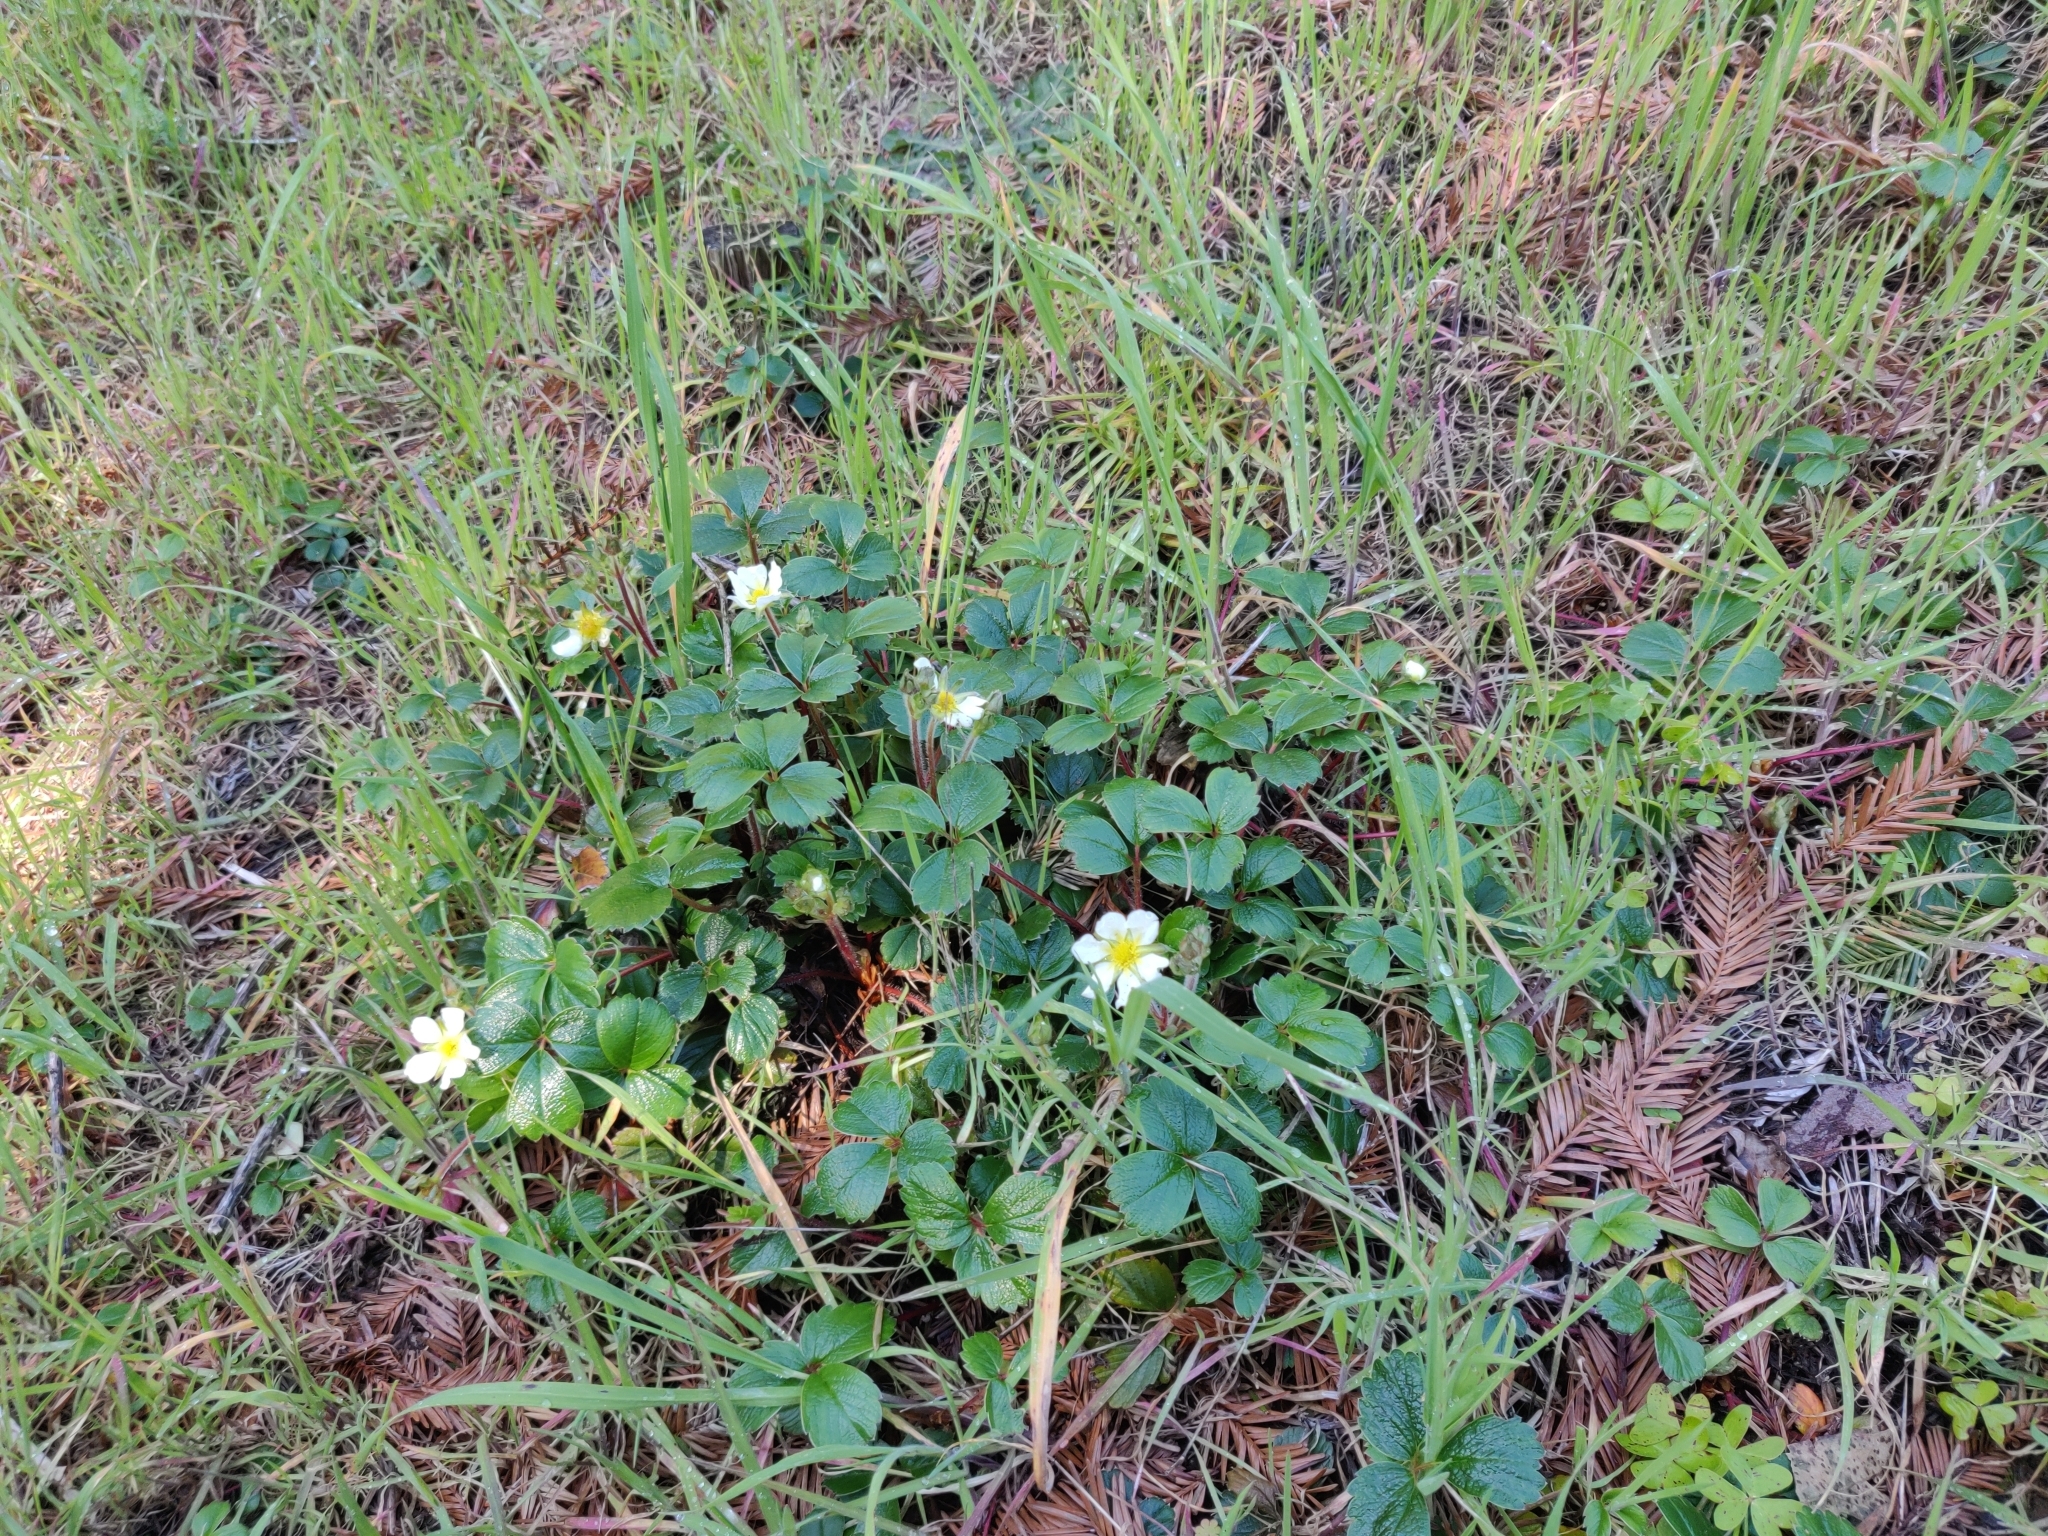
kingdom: Plantae
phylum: Tracheophyta
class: Magnoliopsida
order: Rosales
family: Rosaceae
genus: Fragaria
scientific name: Fragaria chiloensis
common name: Beach strawberry
